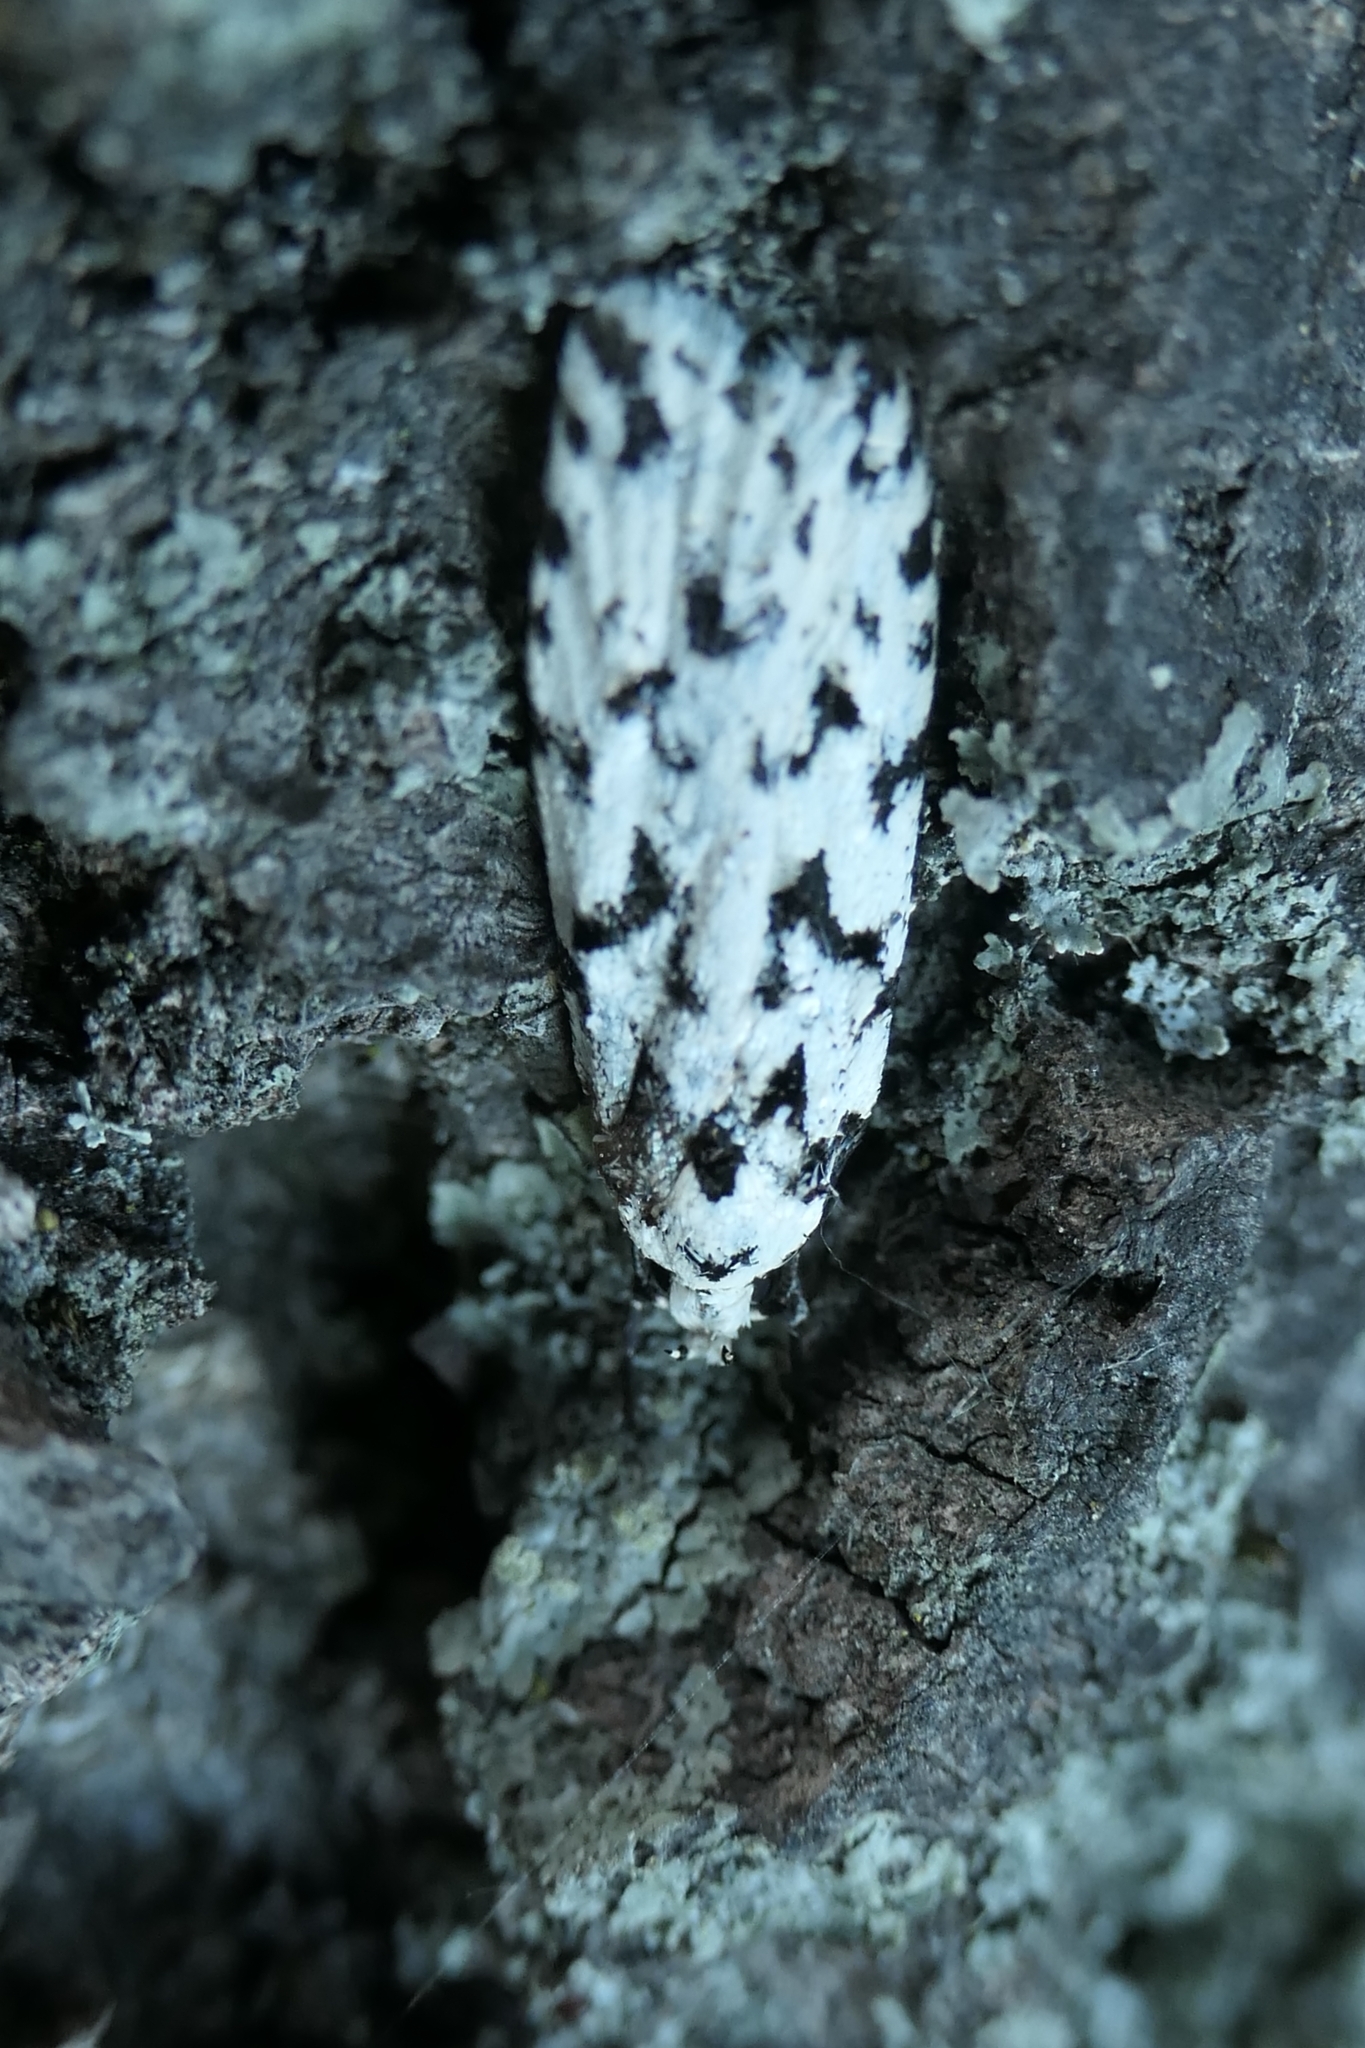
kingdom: Animalia
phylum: Arthropoda
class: Insecta
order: Lepidoptera
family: Oecophoridae
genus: Izatha
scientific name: Izatha katadiktya
